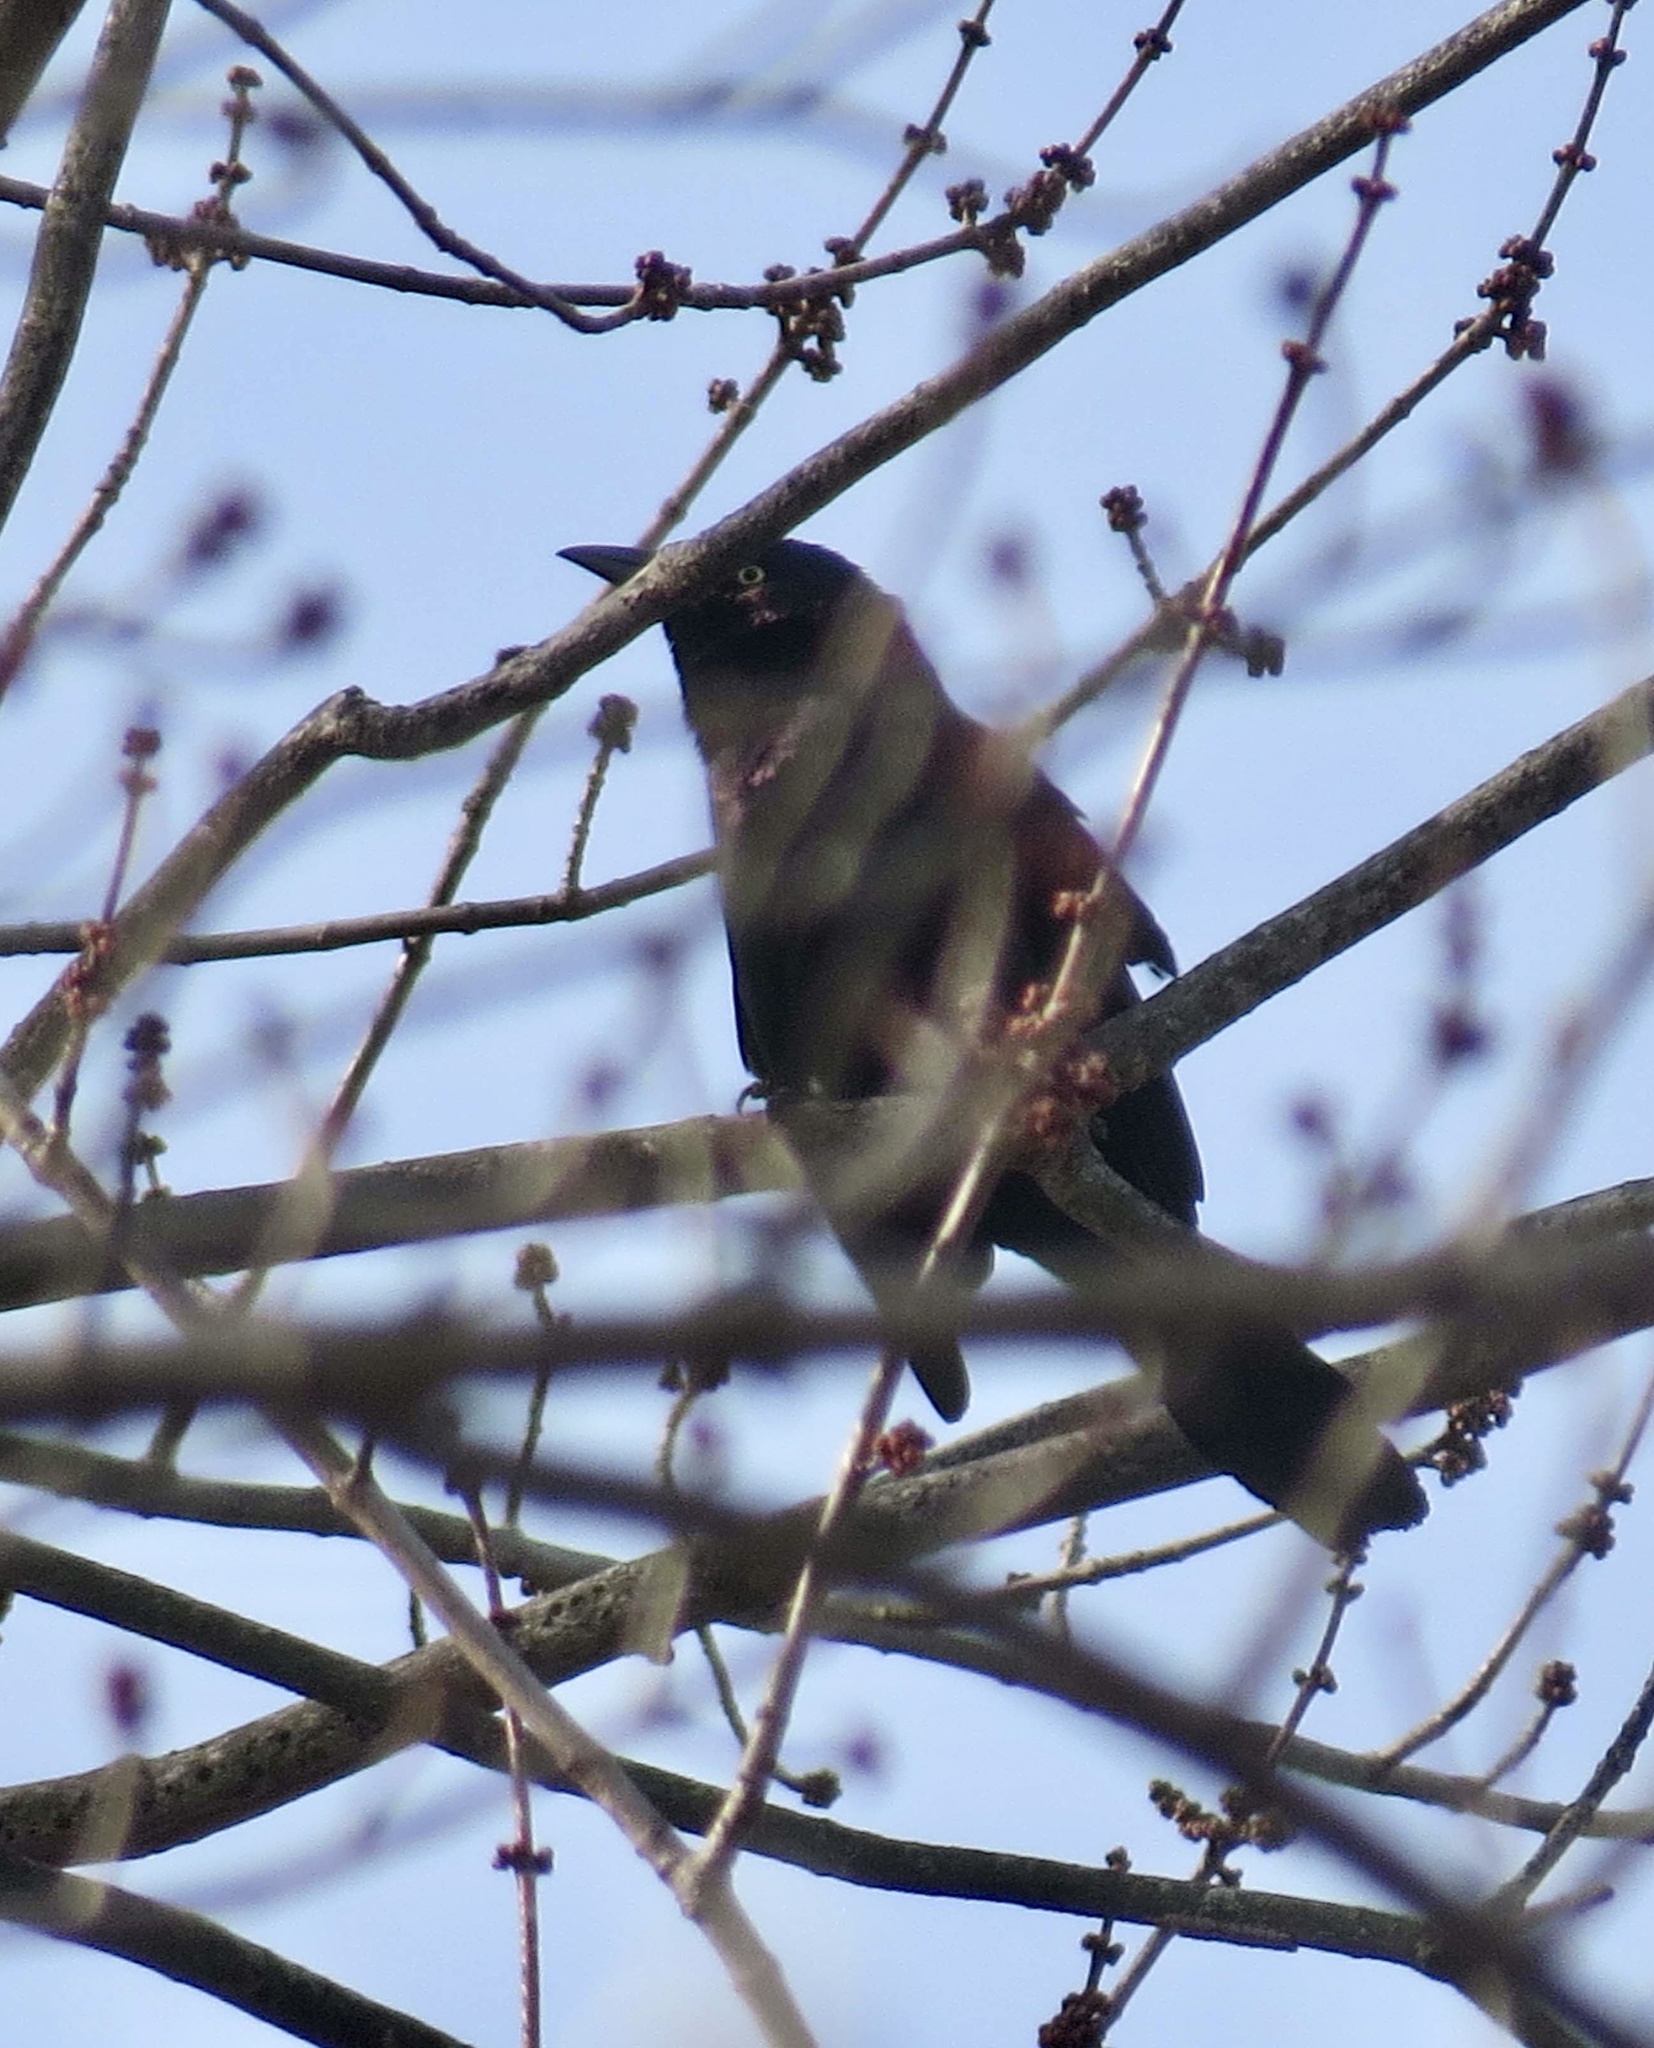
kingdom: Animalia
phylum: Chordata
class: Aves
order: Passeriformes
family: Icteridae
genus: Quiscalus
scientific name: Quiscalus quiscula
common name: Common grackle
